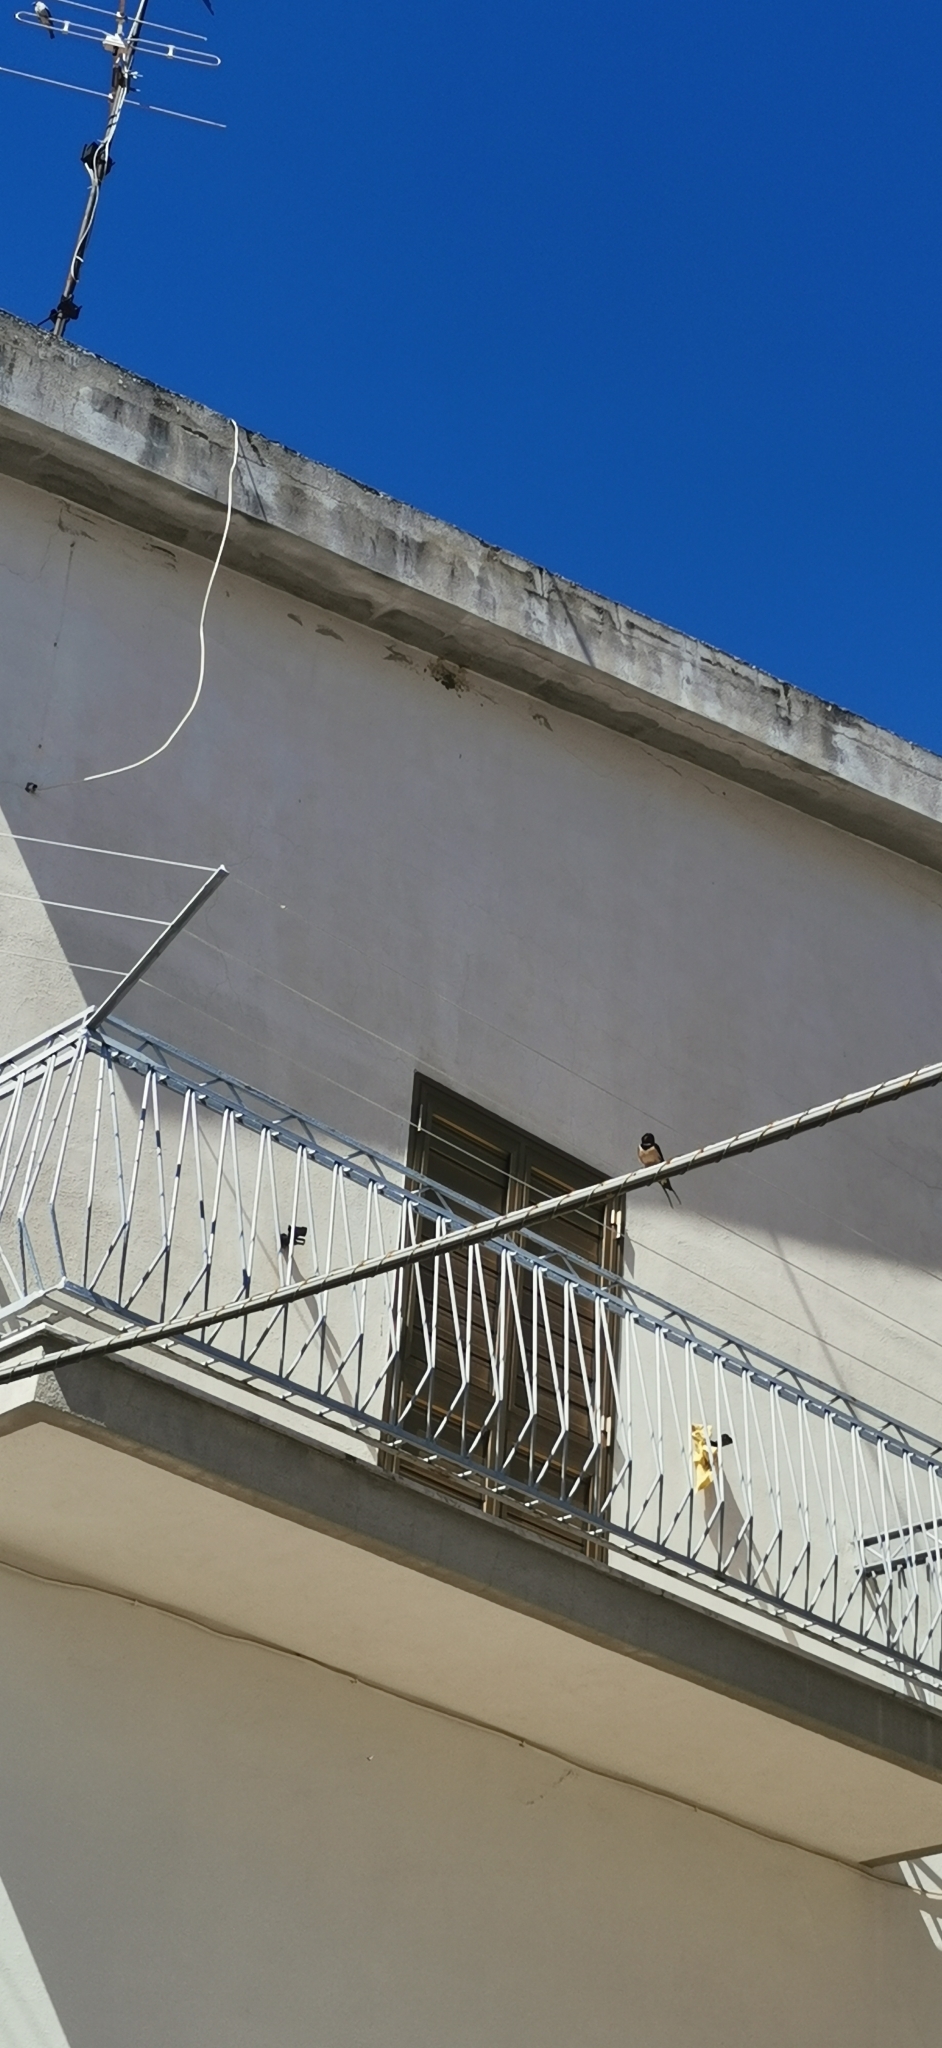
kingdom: Animalia
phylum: Chordata
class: Aves
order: Passeriformes
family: Hirundinidae
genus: Hirundo
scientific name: Hirundo rustica
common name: Barn swallow
